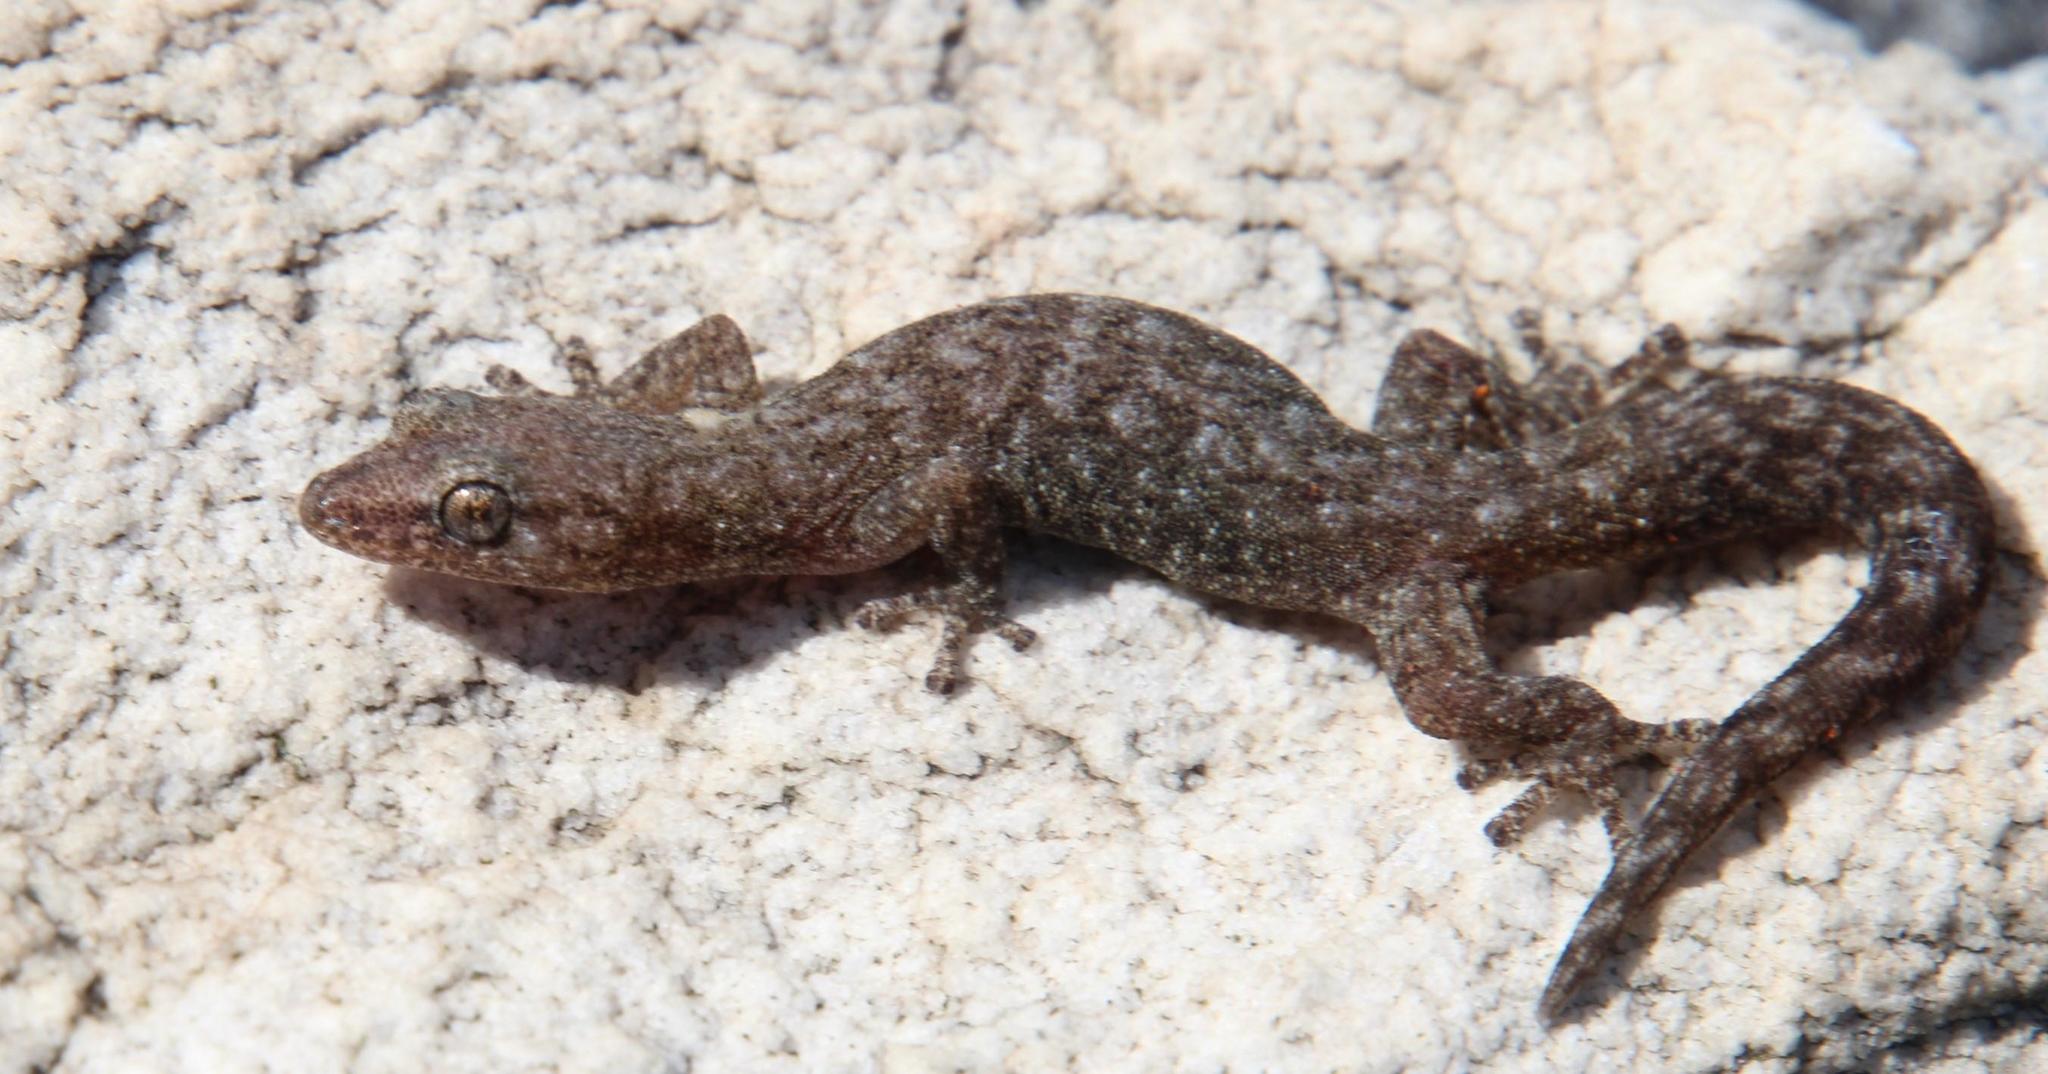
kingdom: Animalia
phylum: Chordata
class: Squamata
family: Gekkonidae
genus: Afrogecko
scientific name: Afrogecko porphyreus
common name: Marbled leaf-toed gecko
